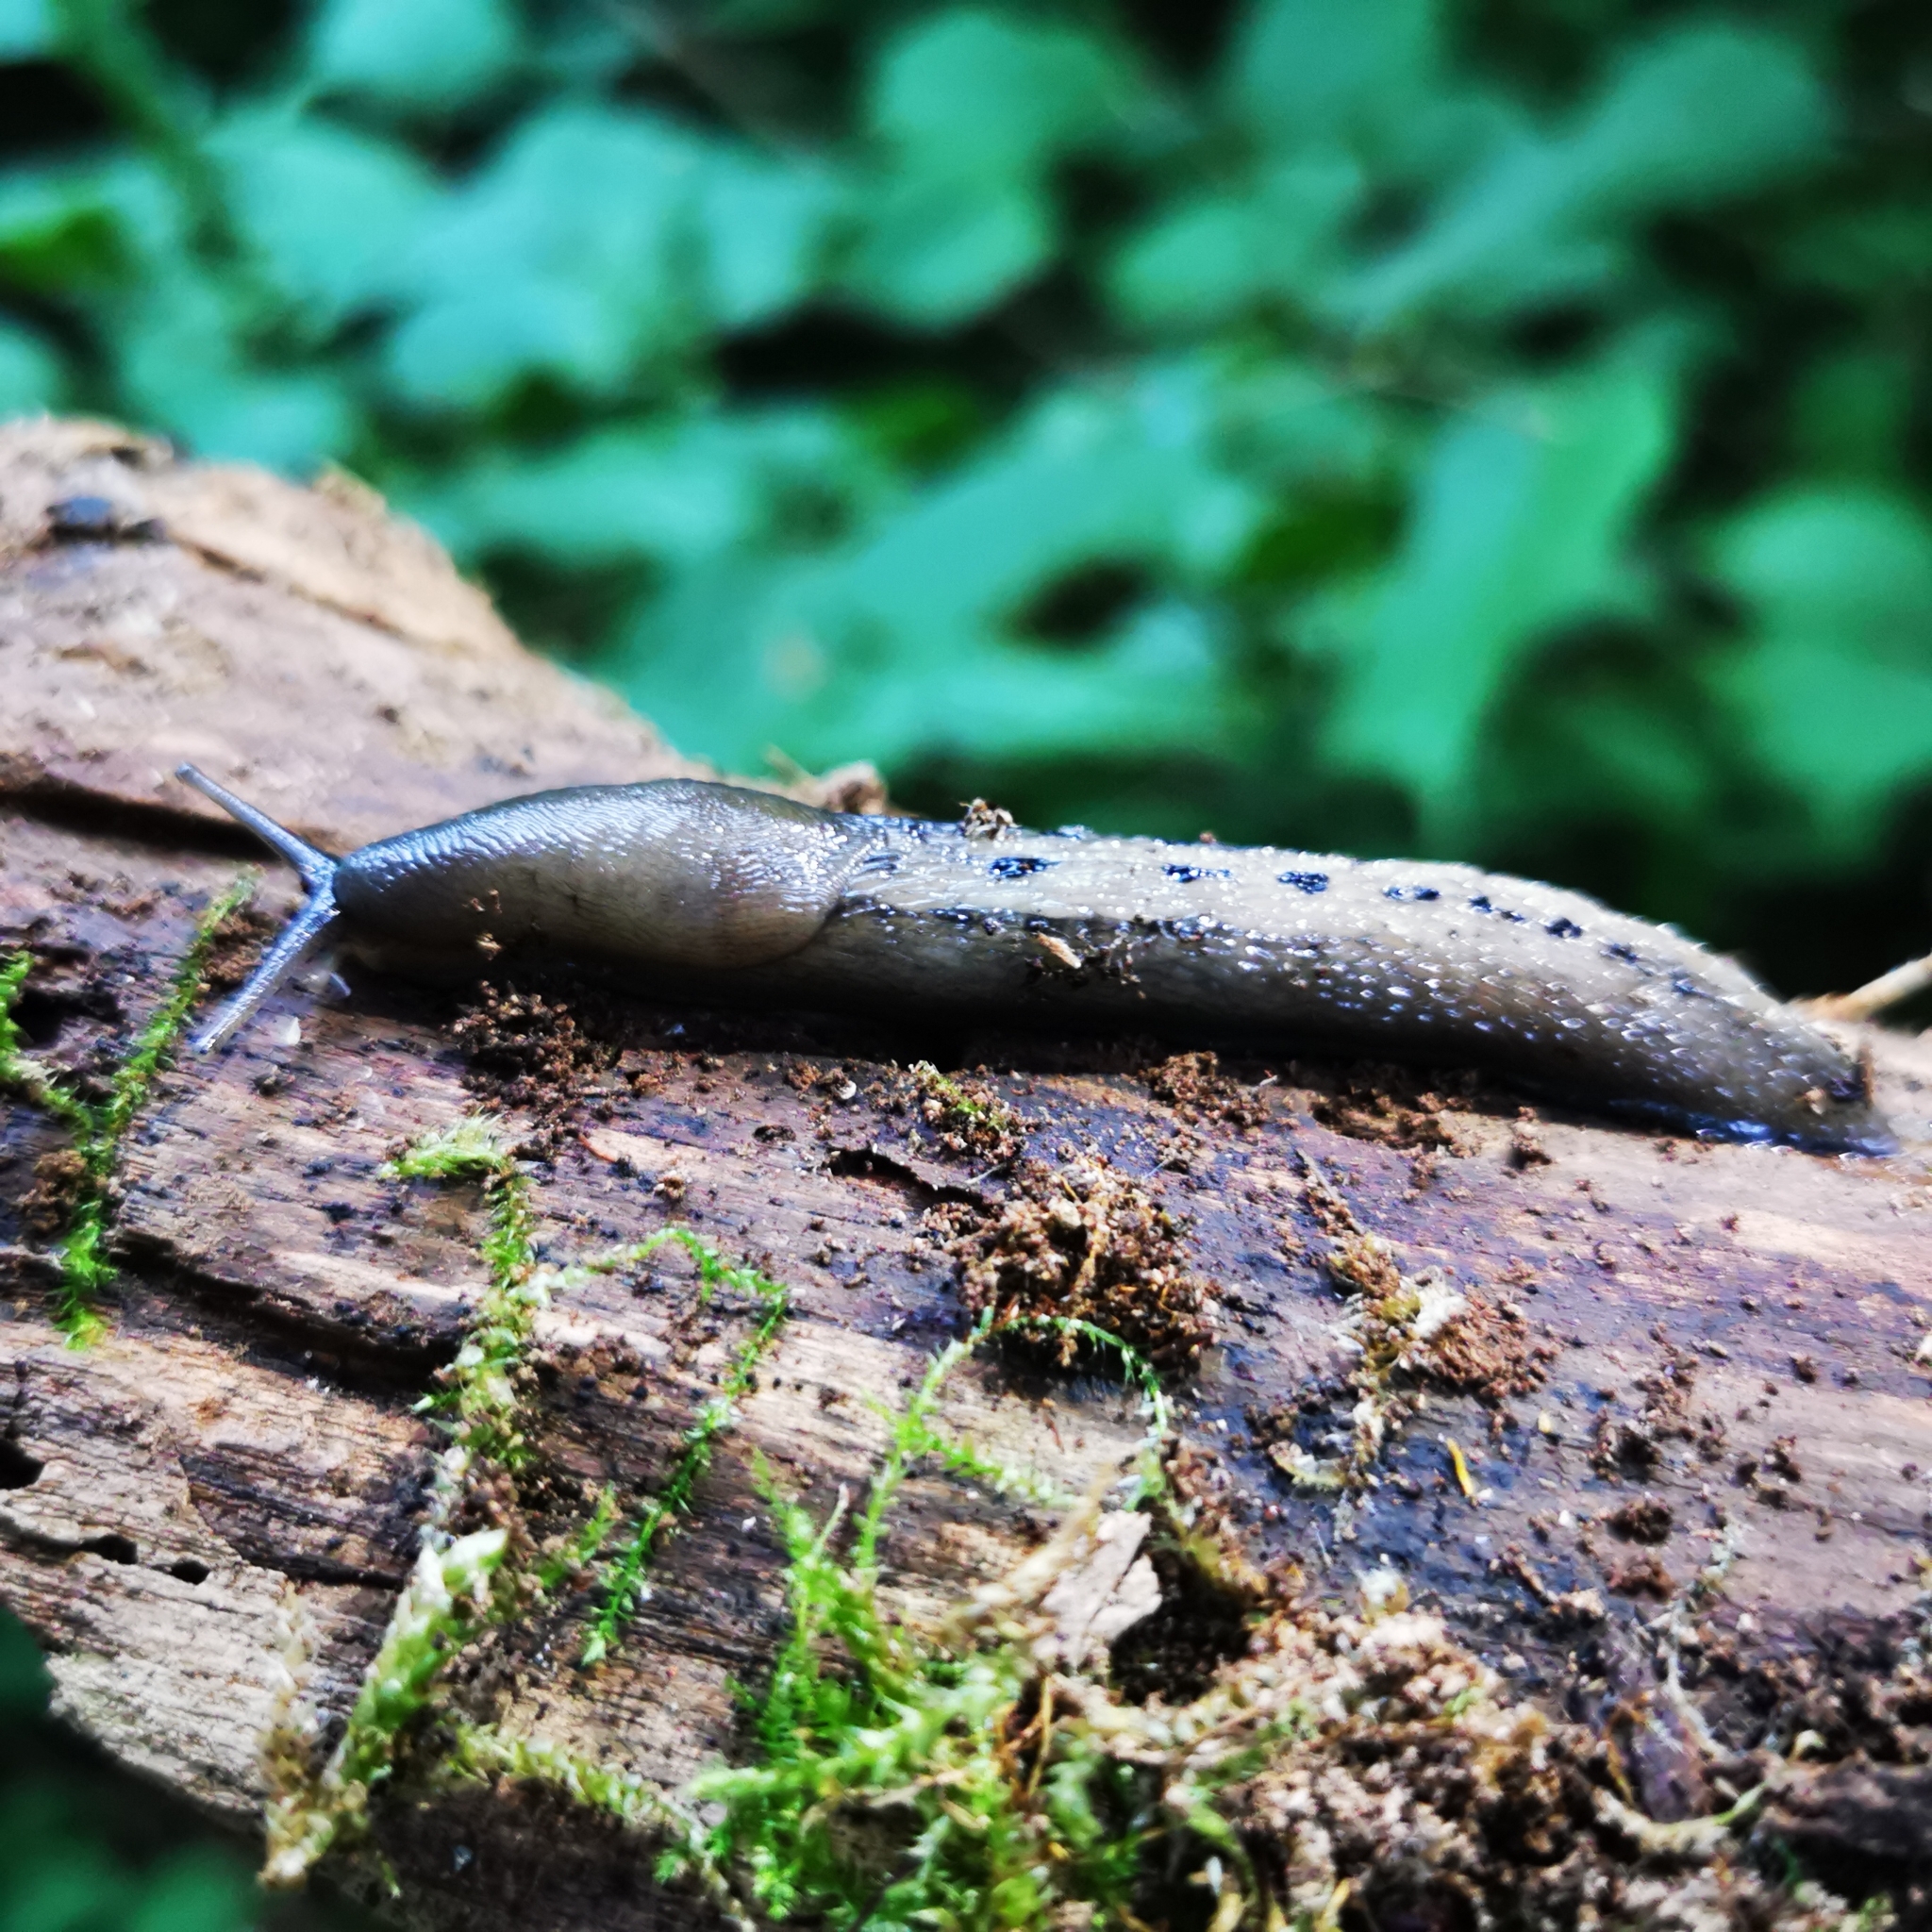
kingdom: Animalia
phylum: Mollusca
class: Gastropoda
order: Stylommatophora
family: Limacidae
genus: Limax
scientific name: Limax cinereoniger
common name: Ash-black slug
